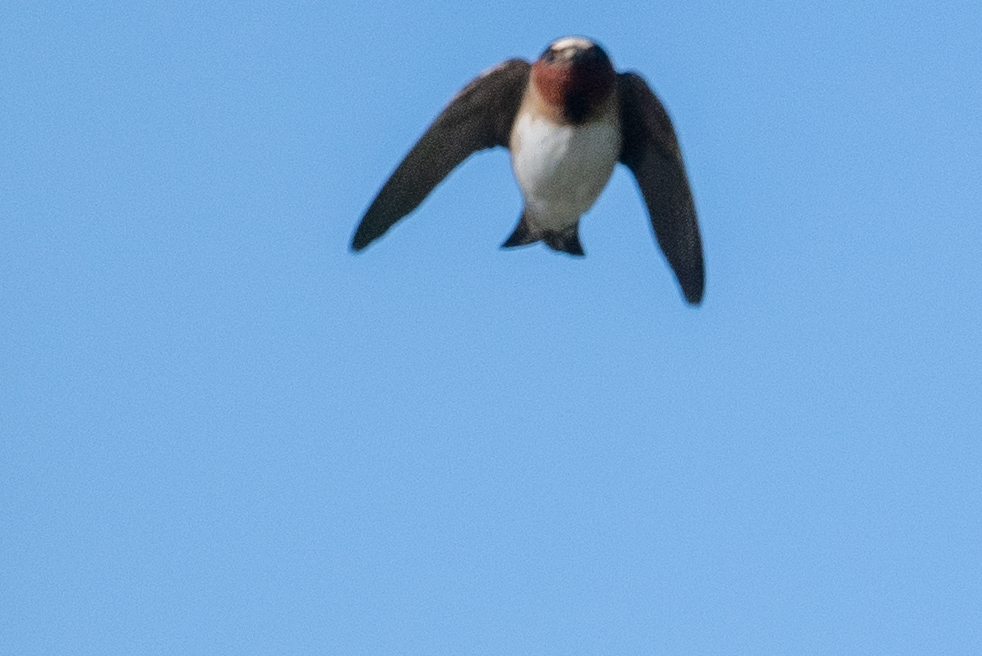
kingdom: Animalia
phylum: Chordata
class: Aves
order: Passeriformes
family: Hirundinidae
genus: Petrochelidon
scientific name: Petrochelidon pyrrhonota
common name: American cliff swallow
